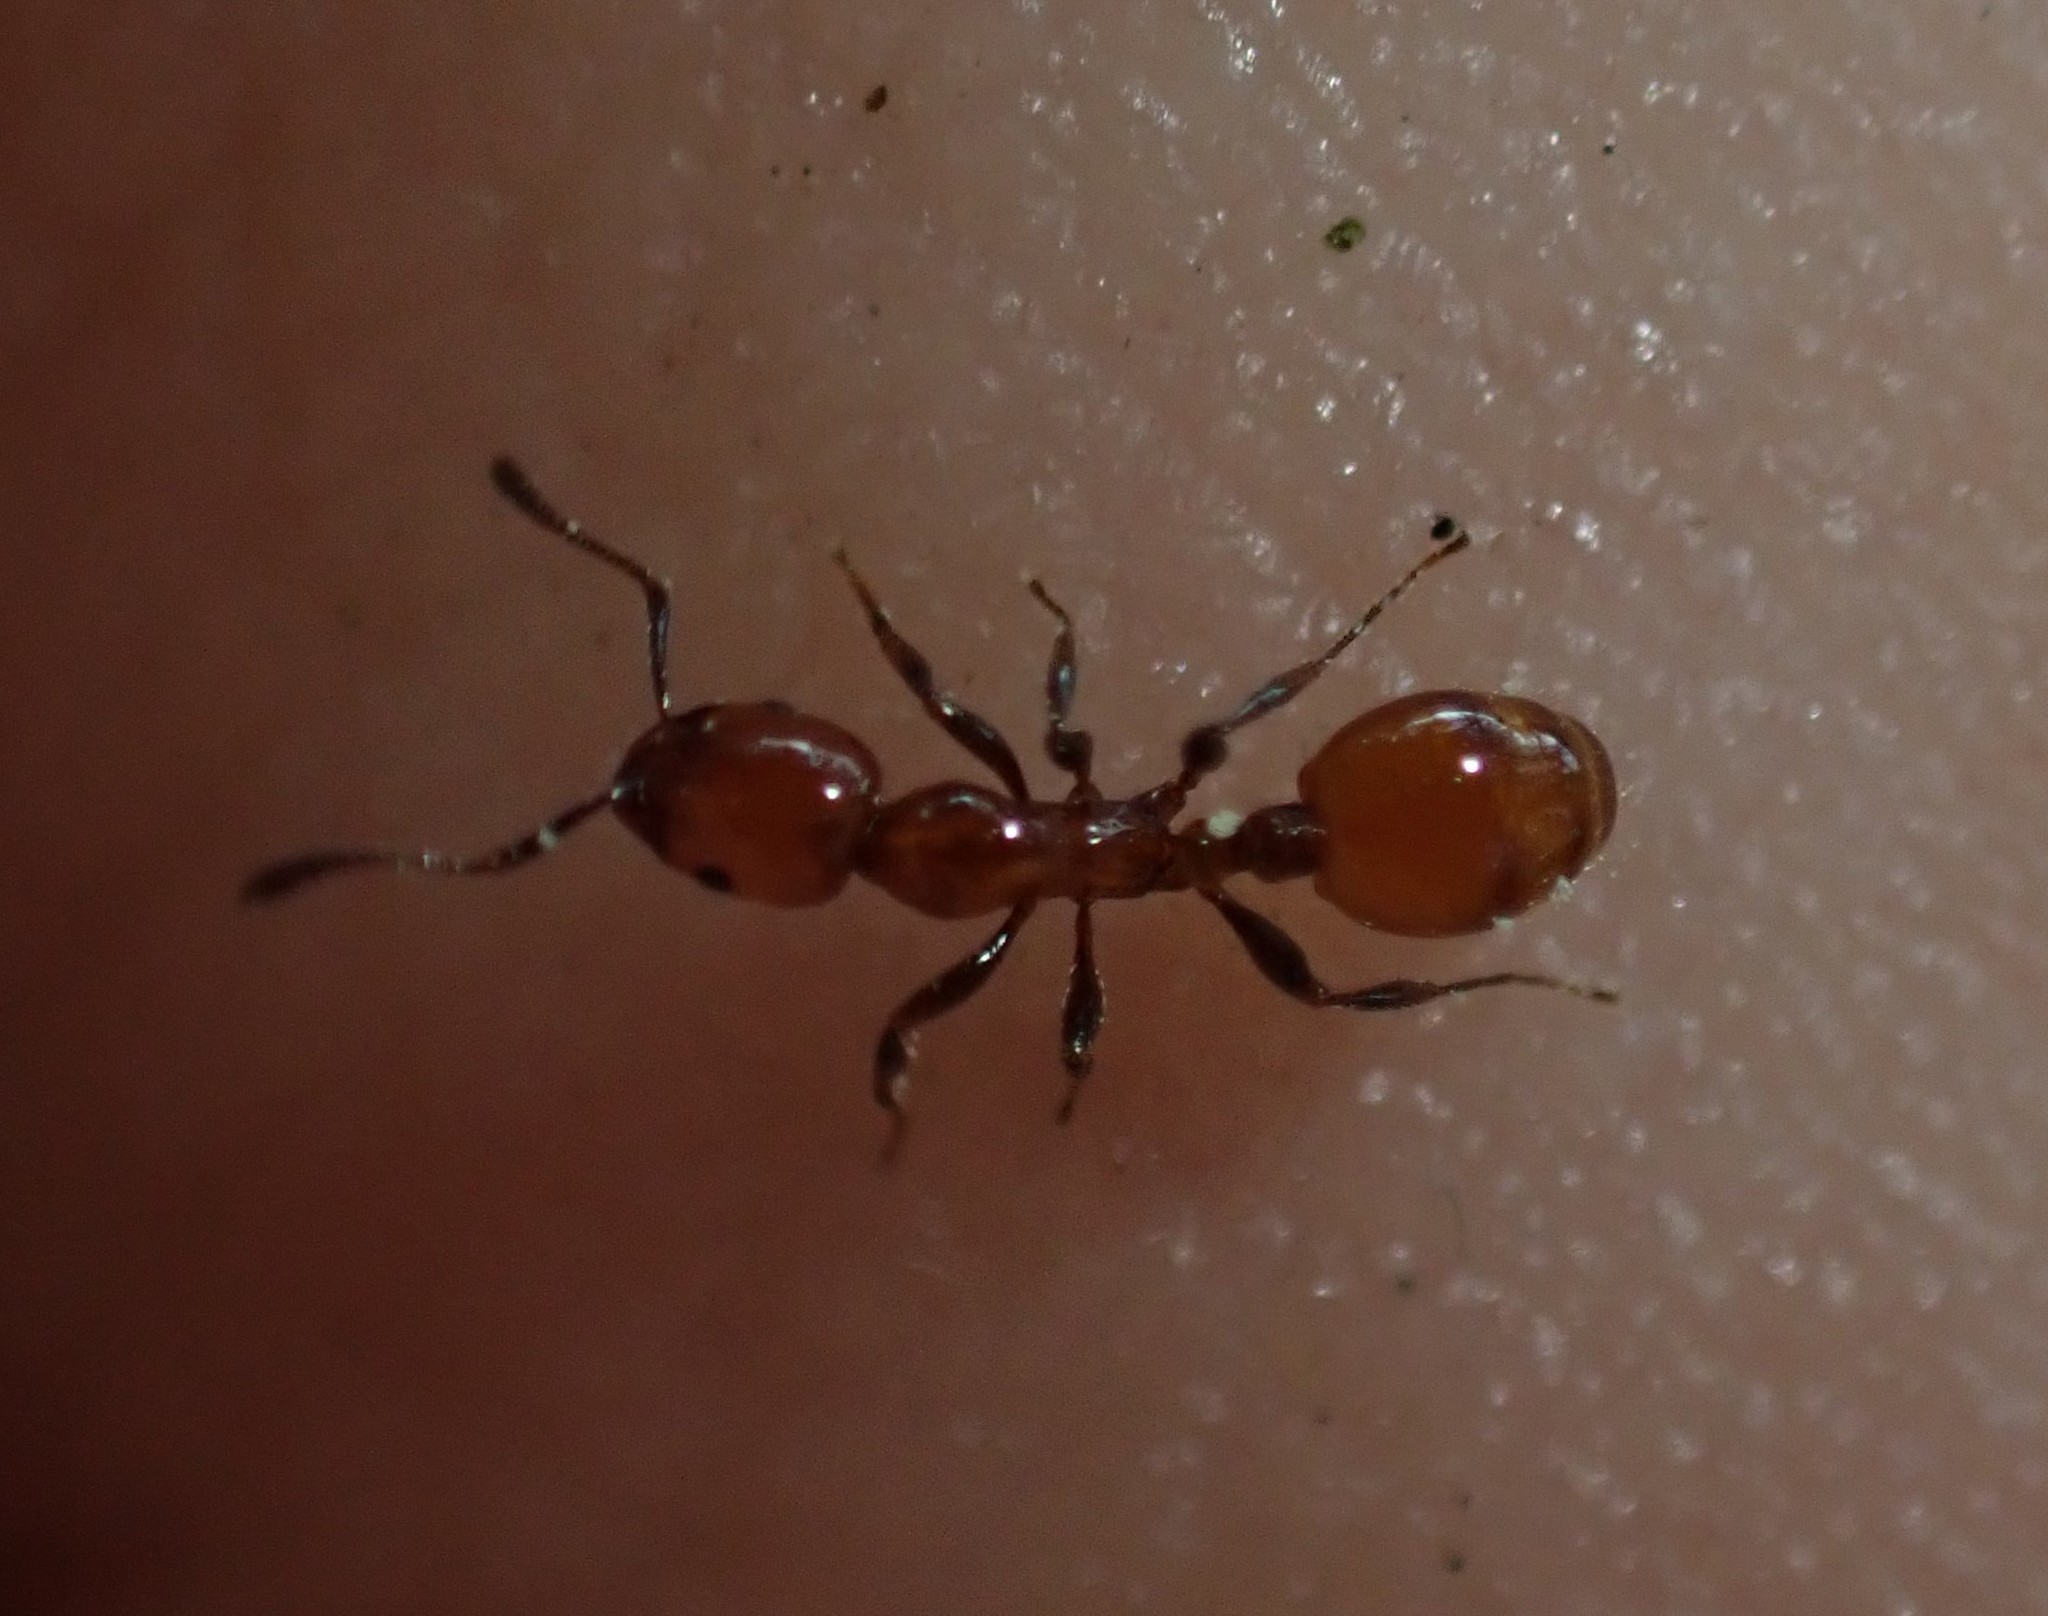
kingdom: Animalia
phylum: Arthropoda
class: Insecta
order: Hymenoptera
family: Formicidae
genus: Monomorium
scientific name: Monomorium antarcticum
